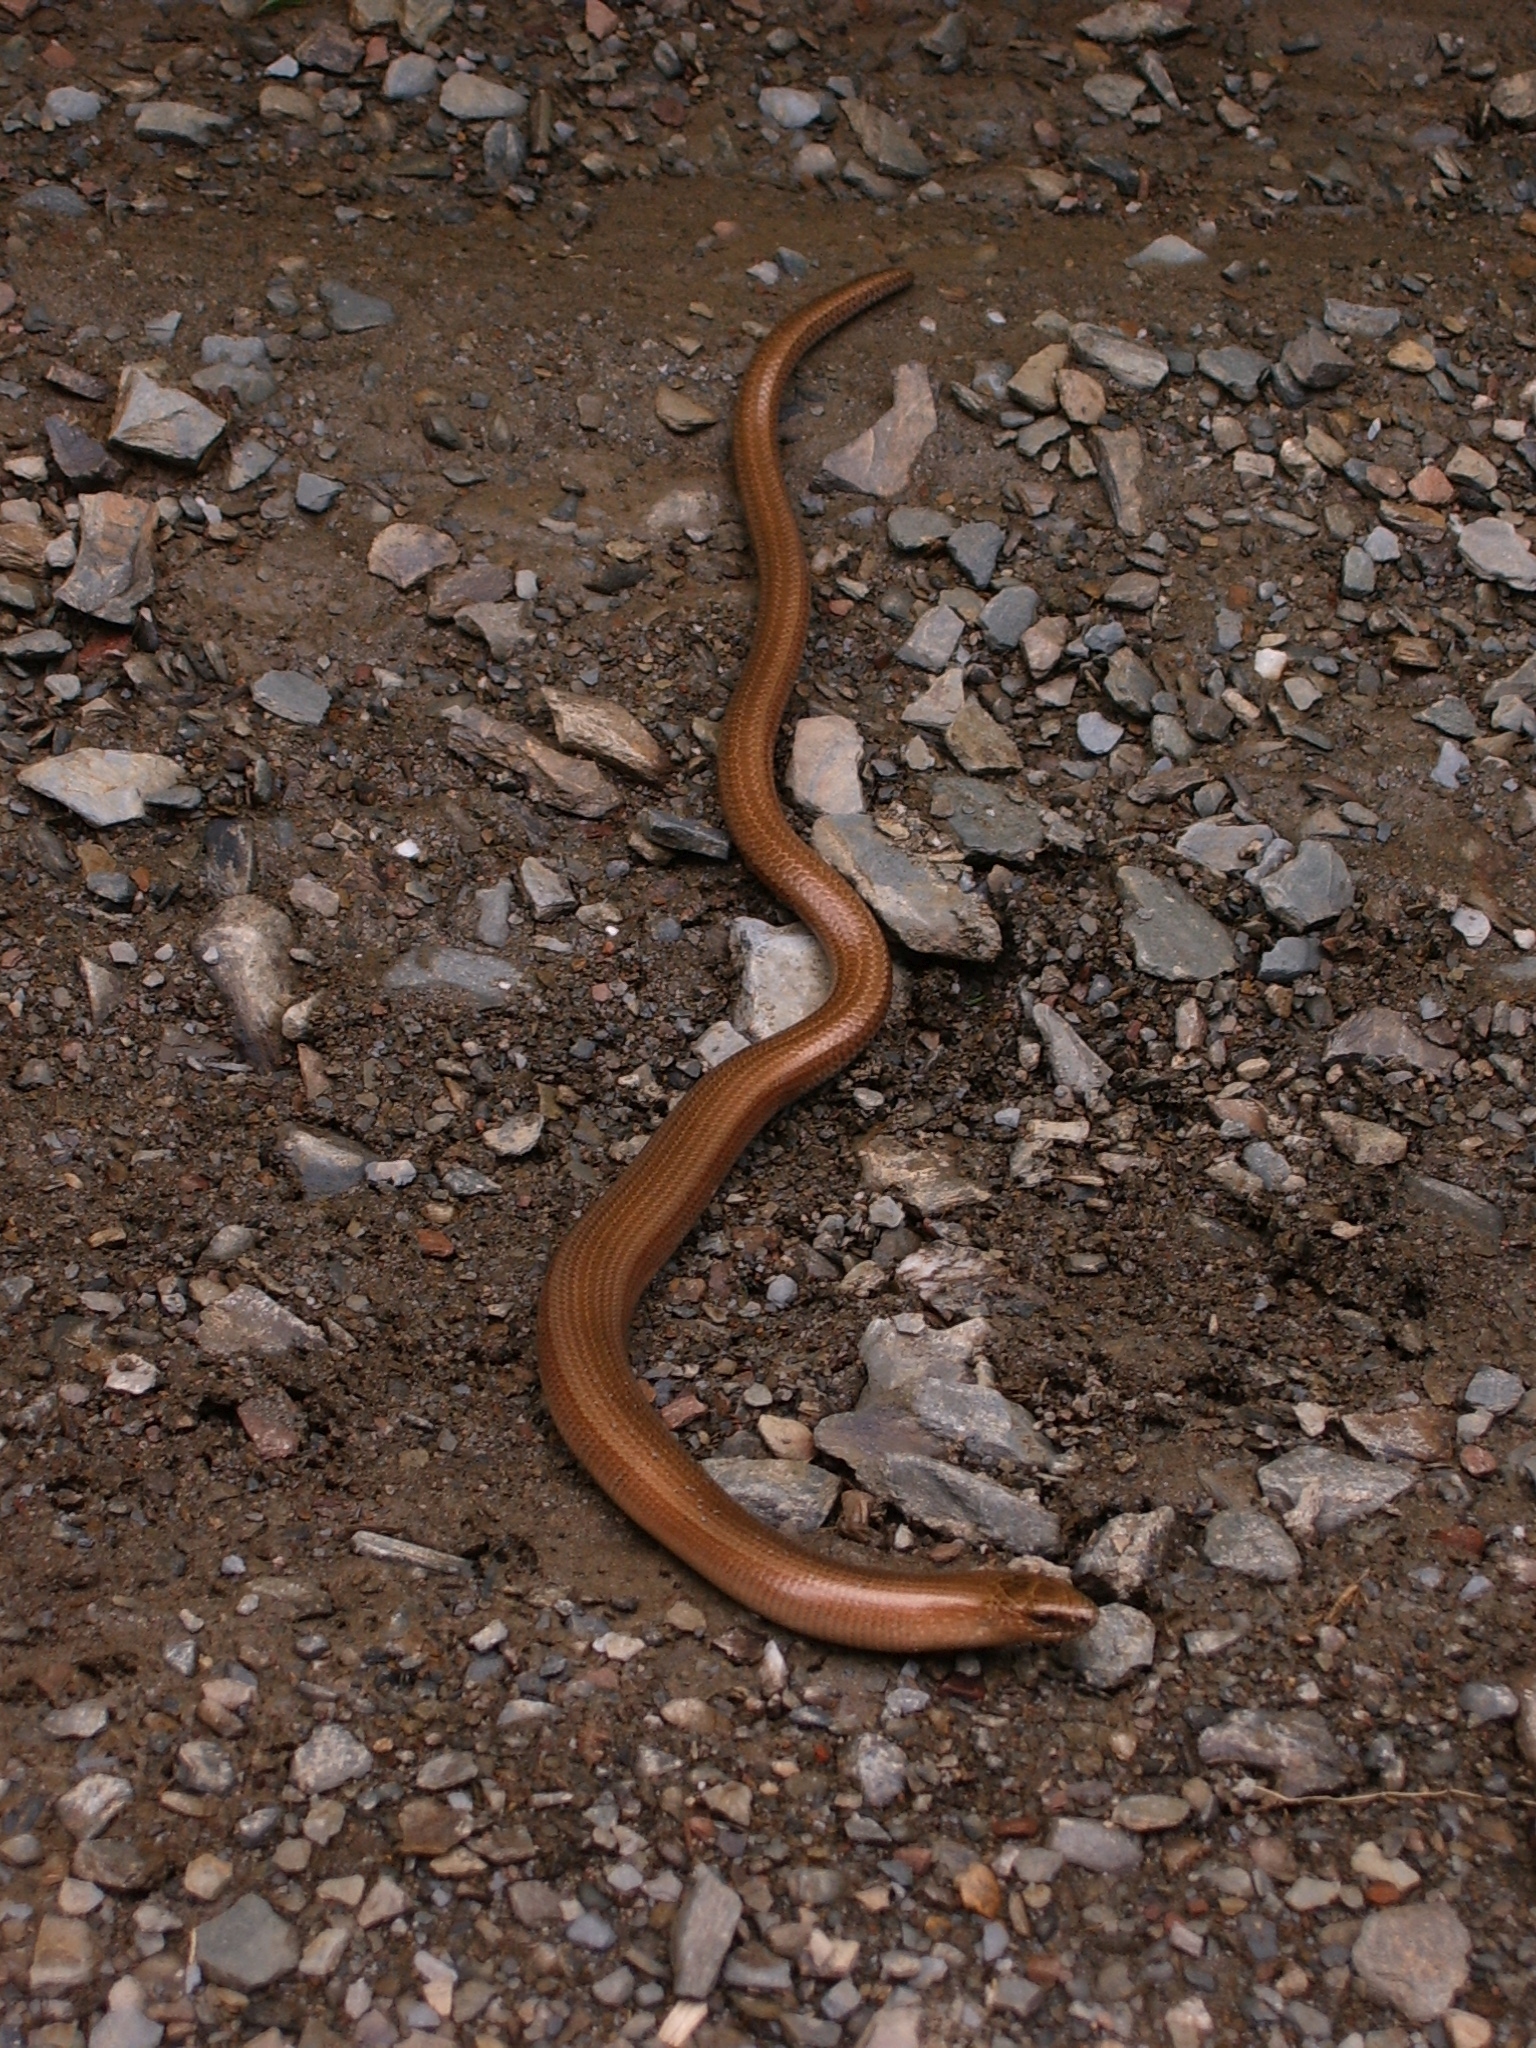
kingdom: Animalia
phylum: Chordata
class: Squamata
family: Anguidae
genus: Anguis
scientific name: Anguis colchica
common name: Slow worm
